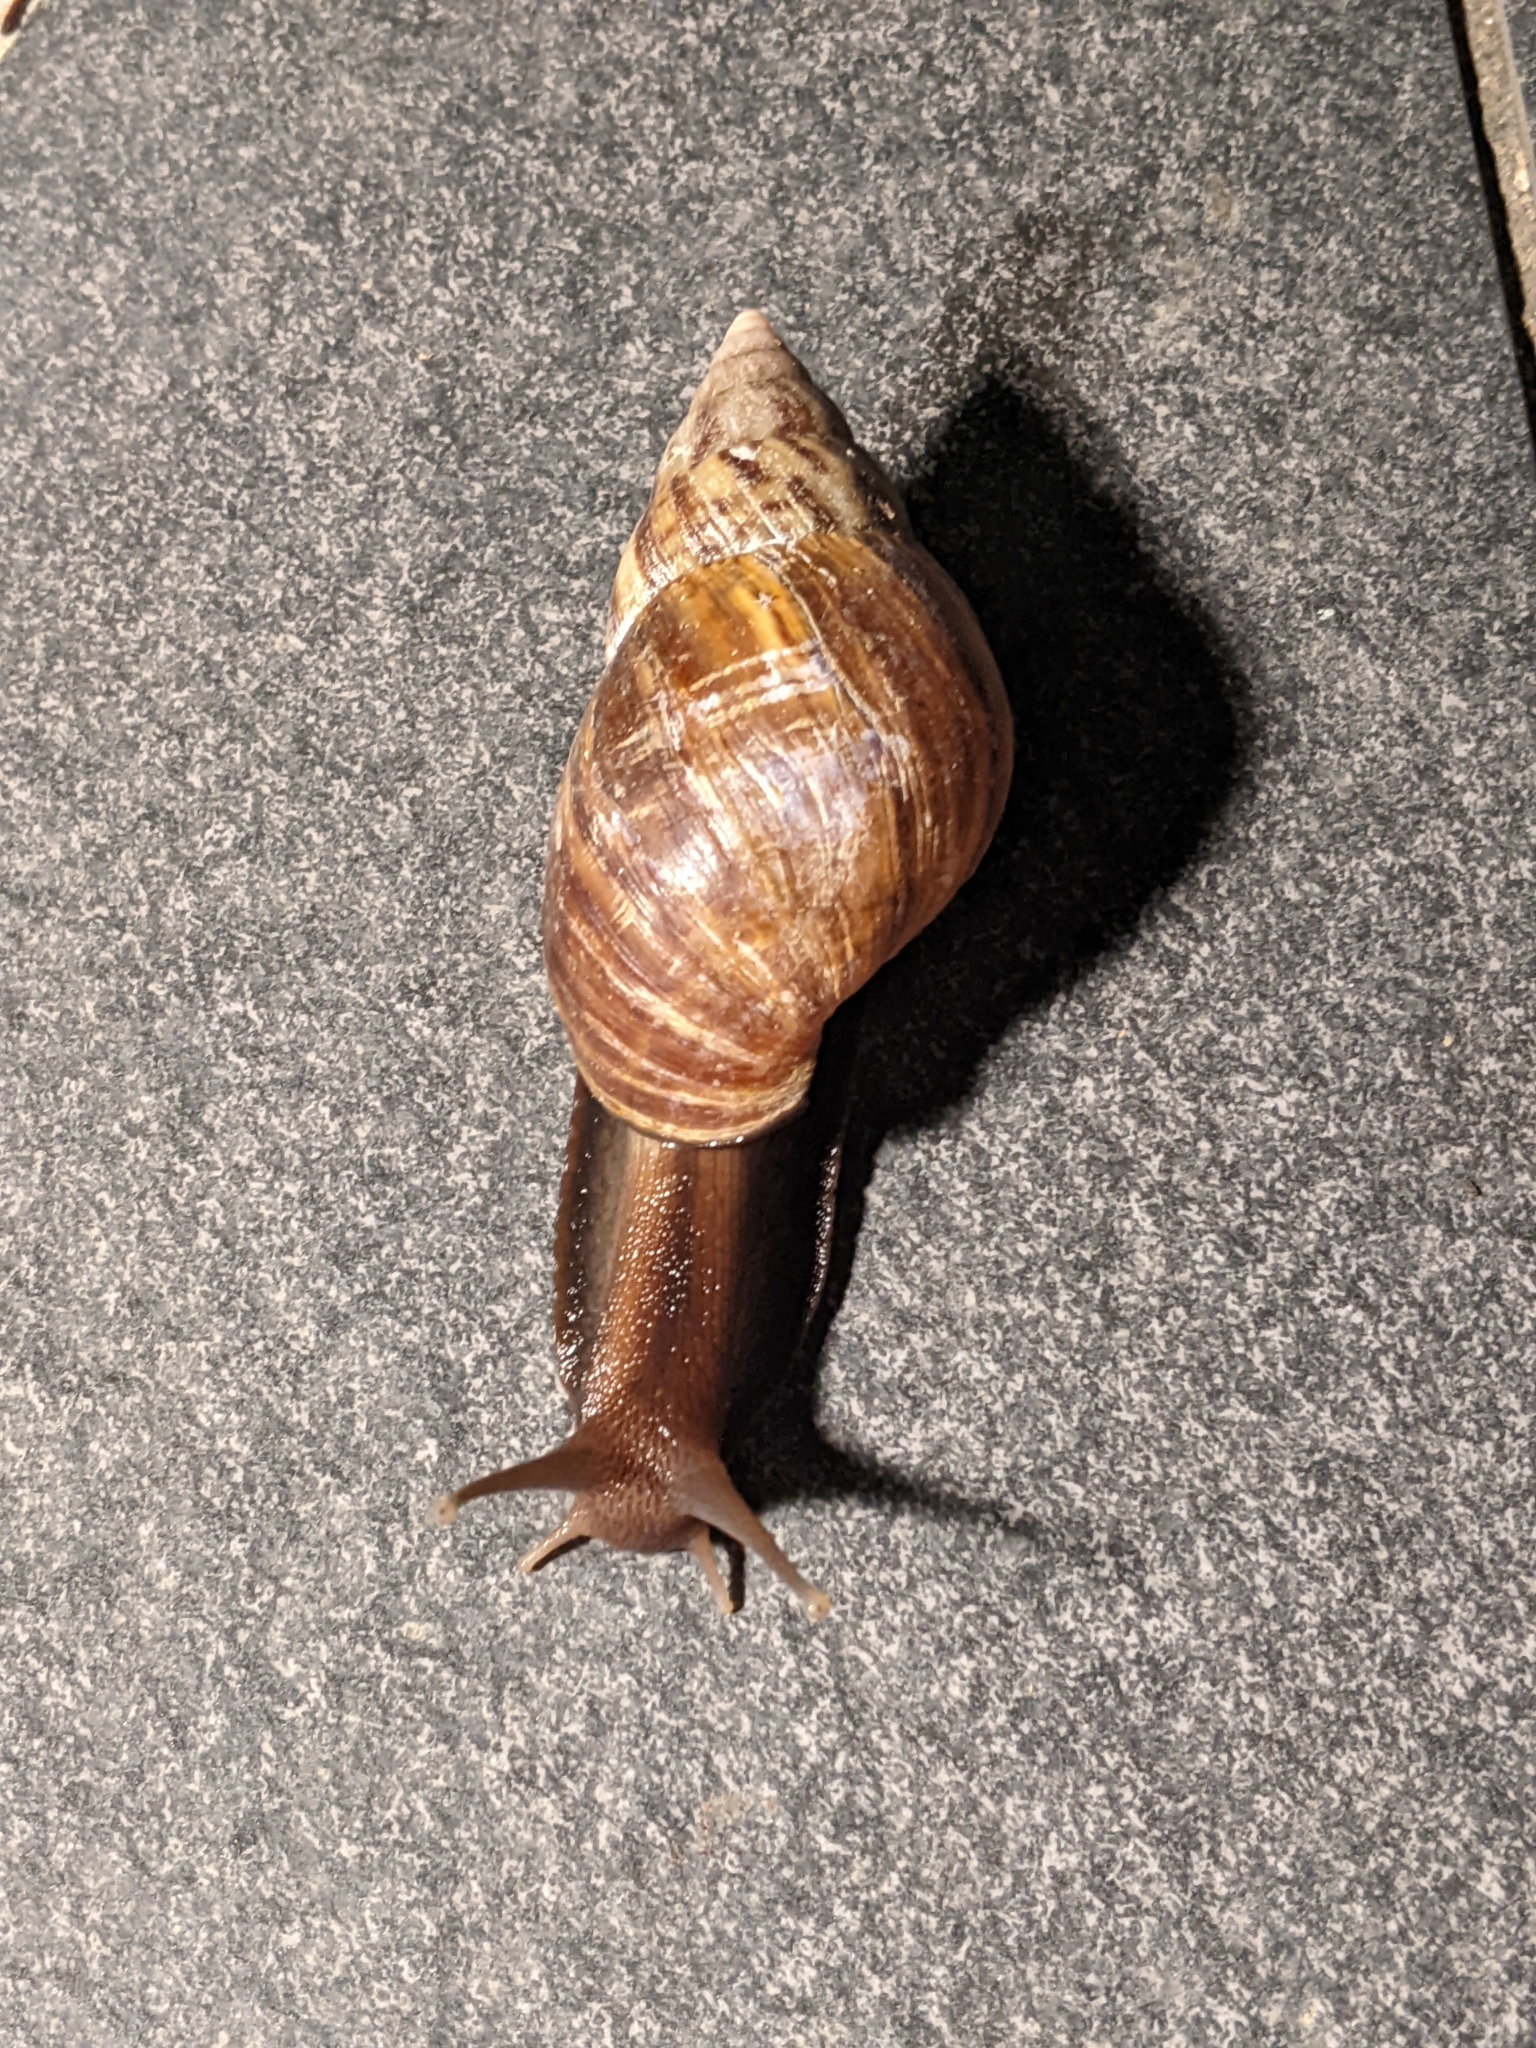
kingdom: Animalia
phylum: Mollusca
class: Gastropoda
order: Stylommatophora
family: Achatinidae
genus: Lissachatina
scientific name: Lissachatina fulica
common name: Giant african snail
